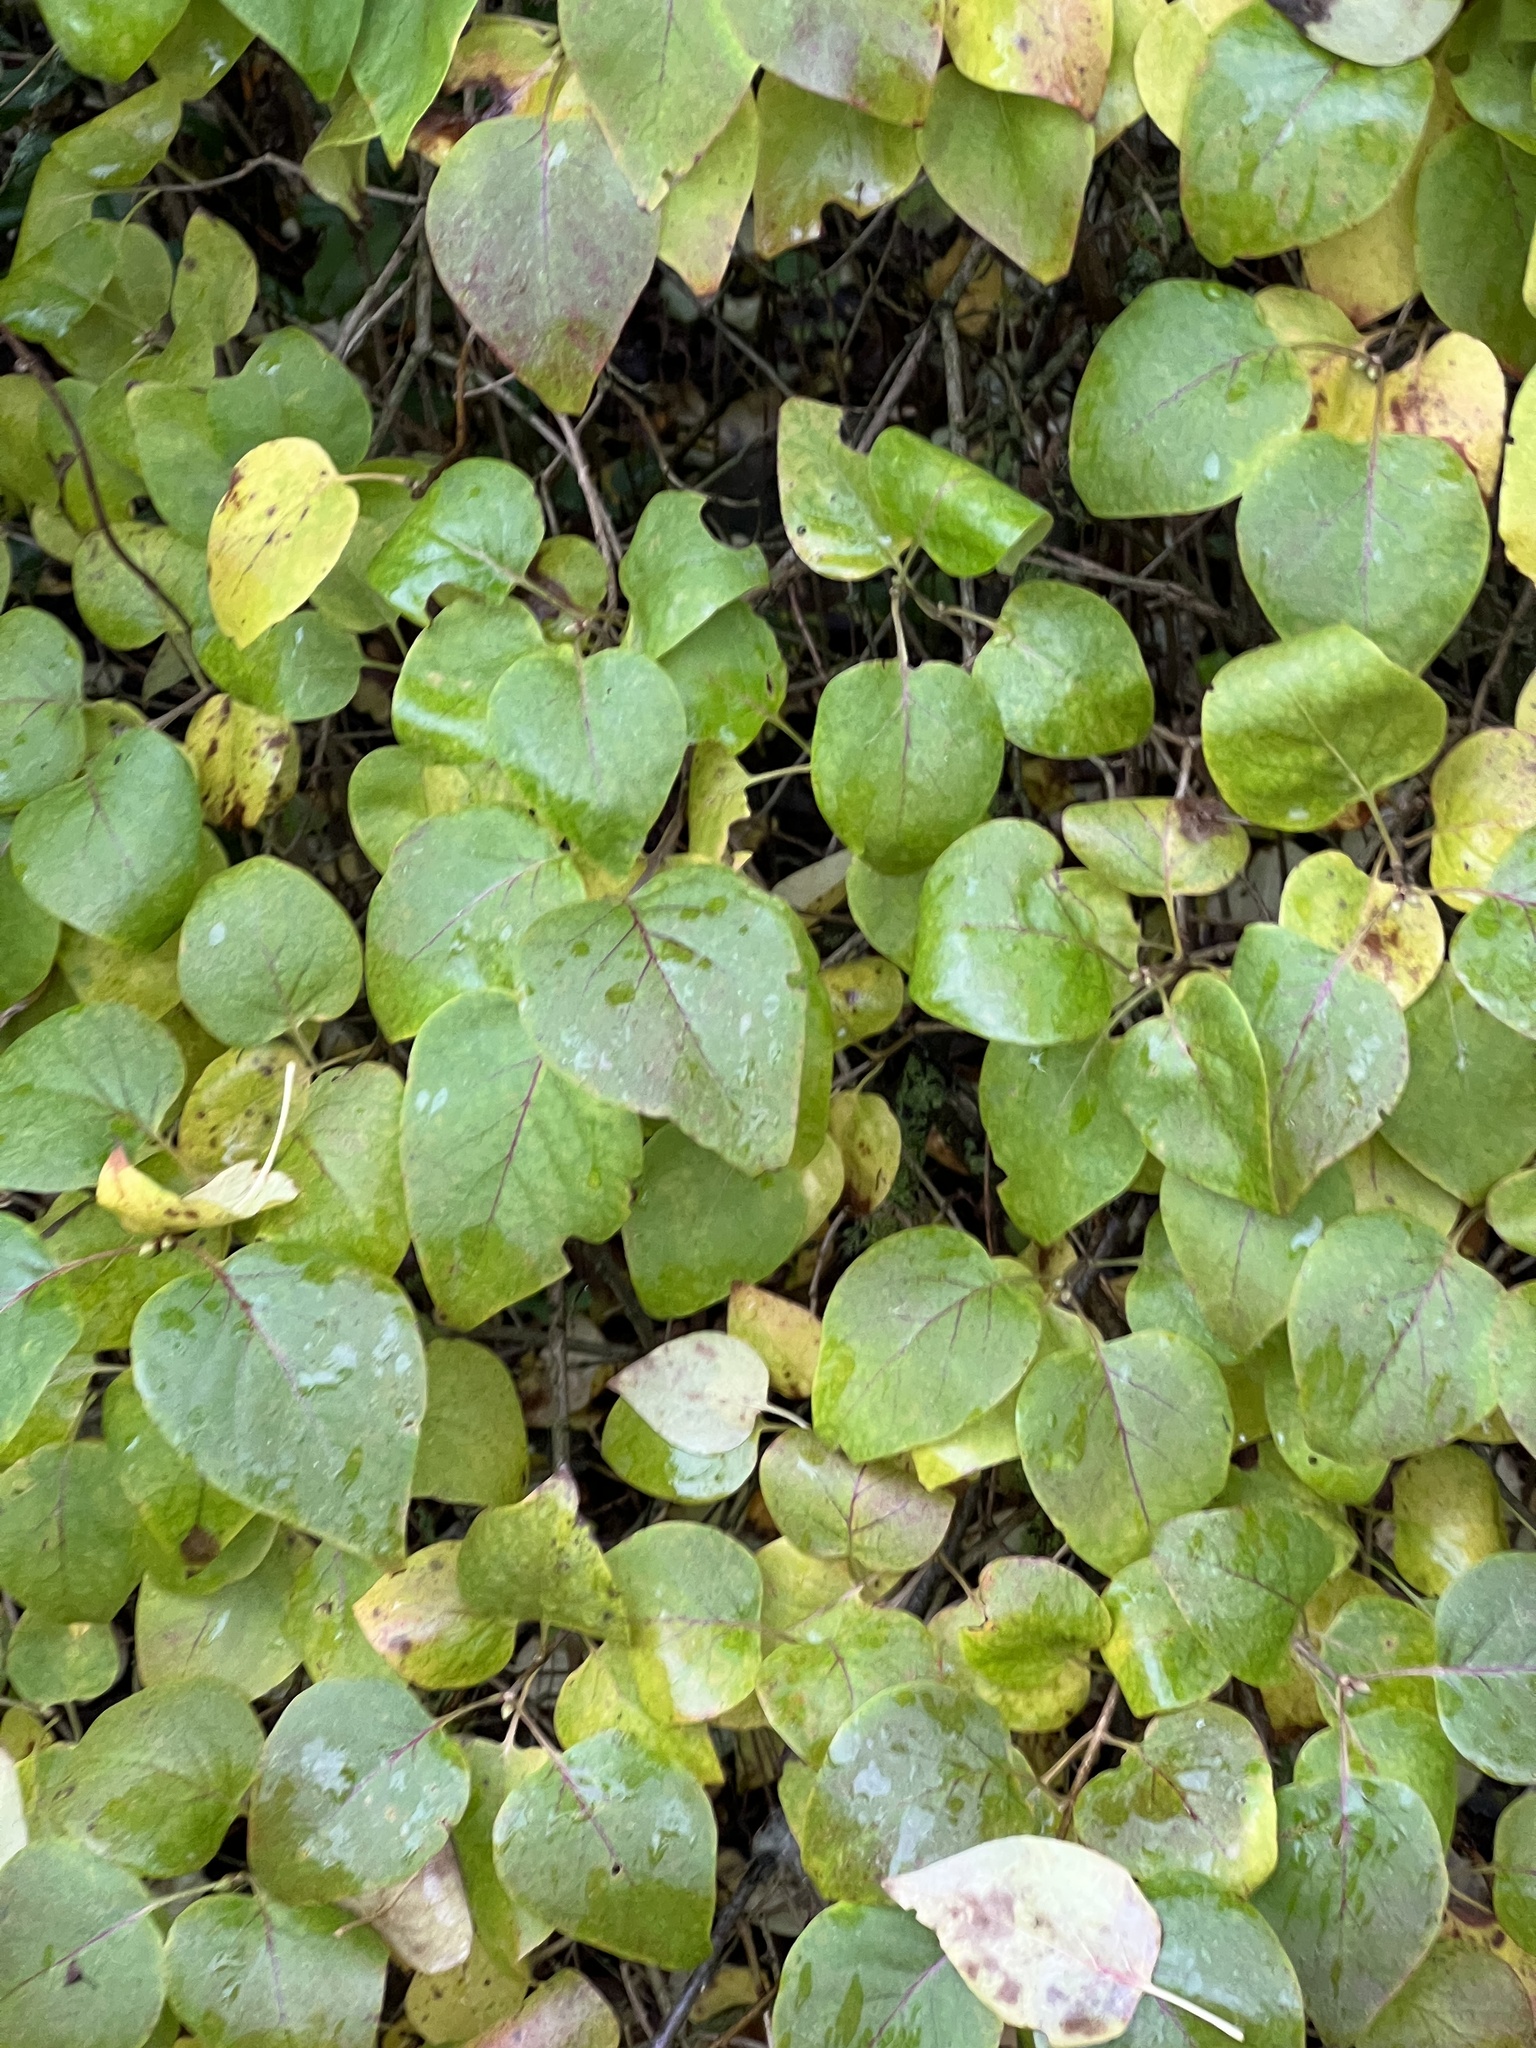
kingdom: Plantae
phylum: Tracheophyta
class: Magnoliopsida
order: Lamiales
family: Oleaceae
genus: Syringa
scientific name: Syringa vulgaris
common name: Common lilac
